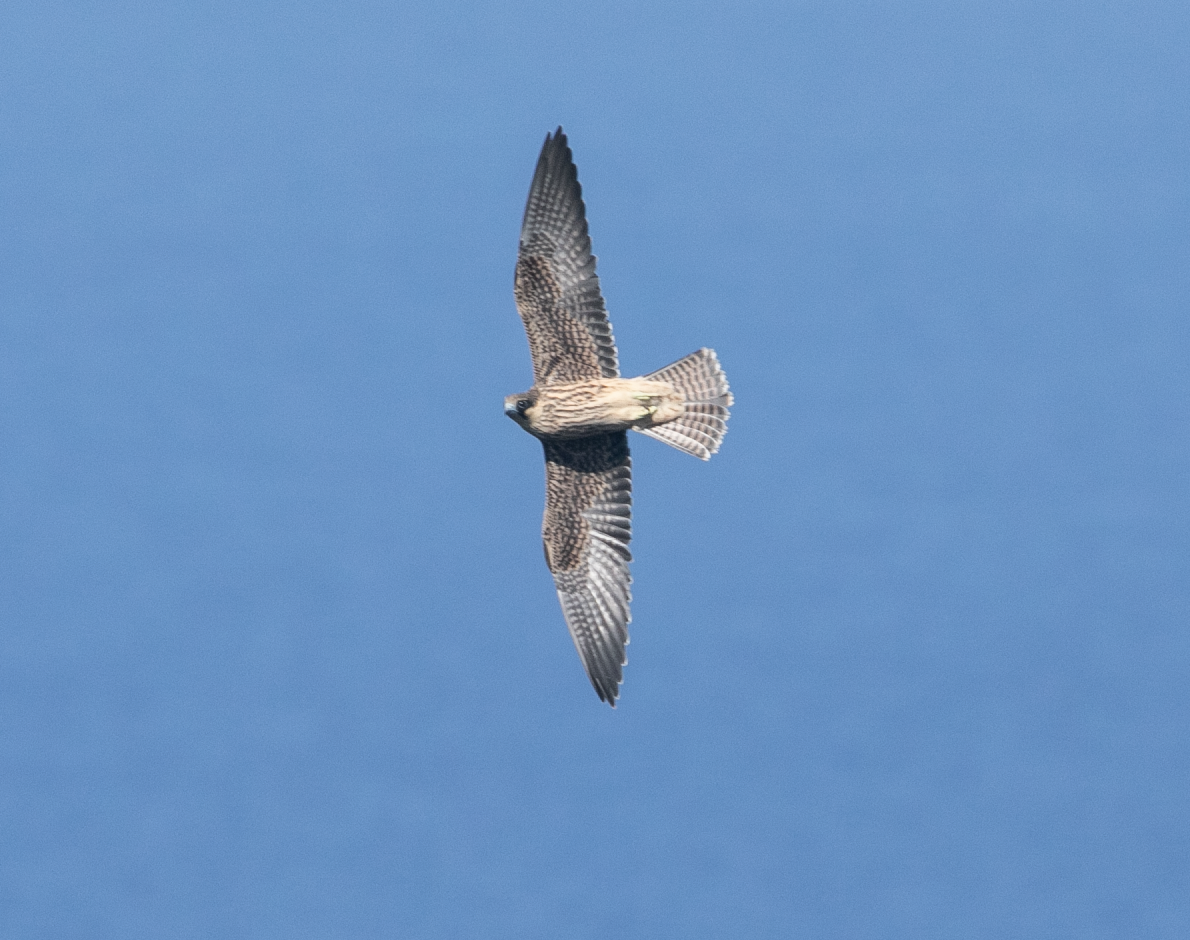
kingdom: Animalia
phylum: Chordata
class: Aves
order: Falconiformes
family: Falconidae
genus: Falco
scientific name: Falco eleonorae
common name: Eleonora's falcon
